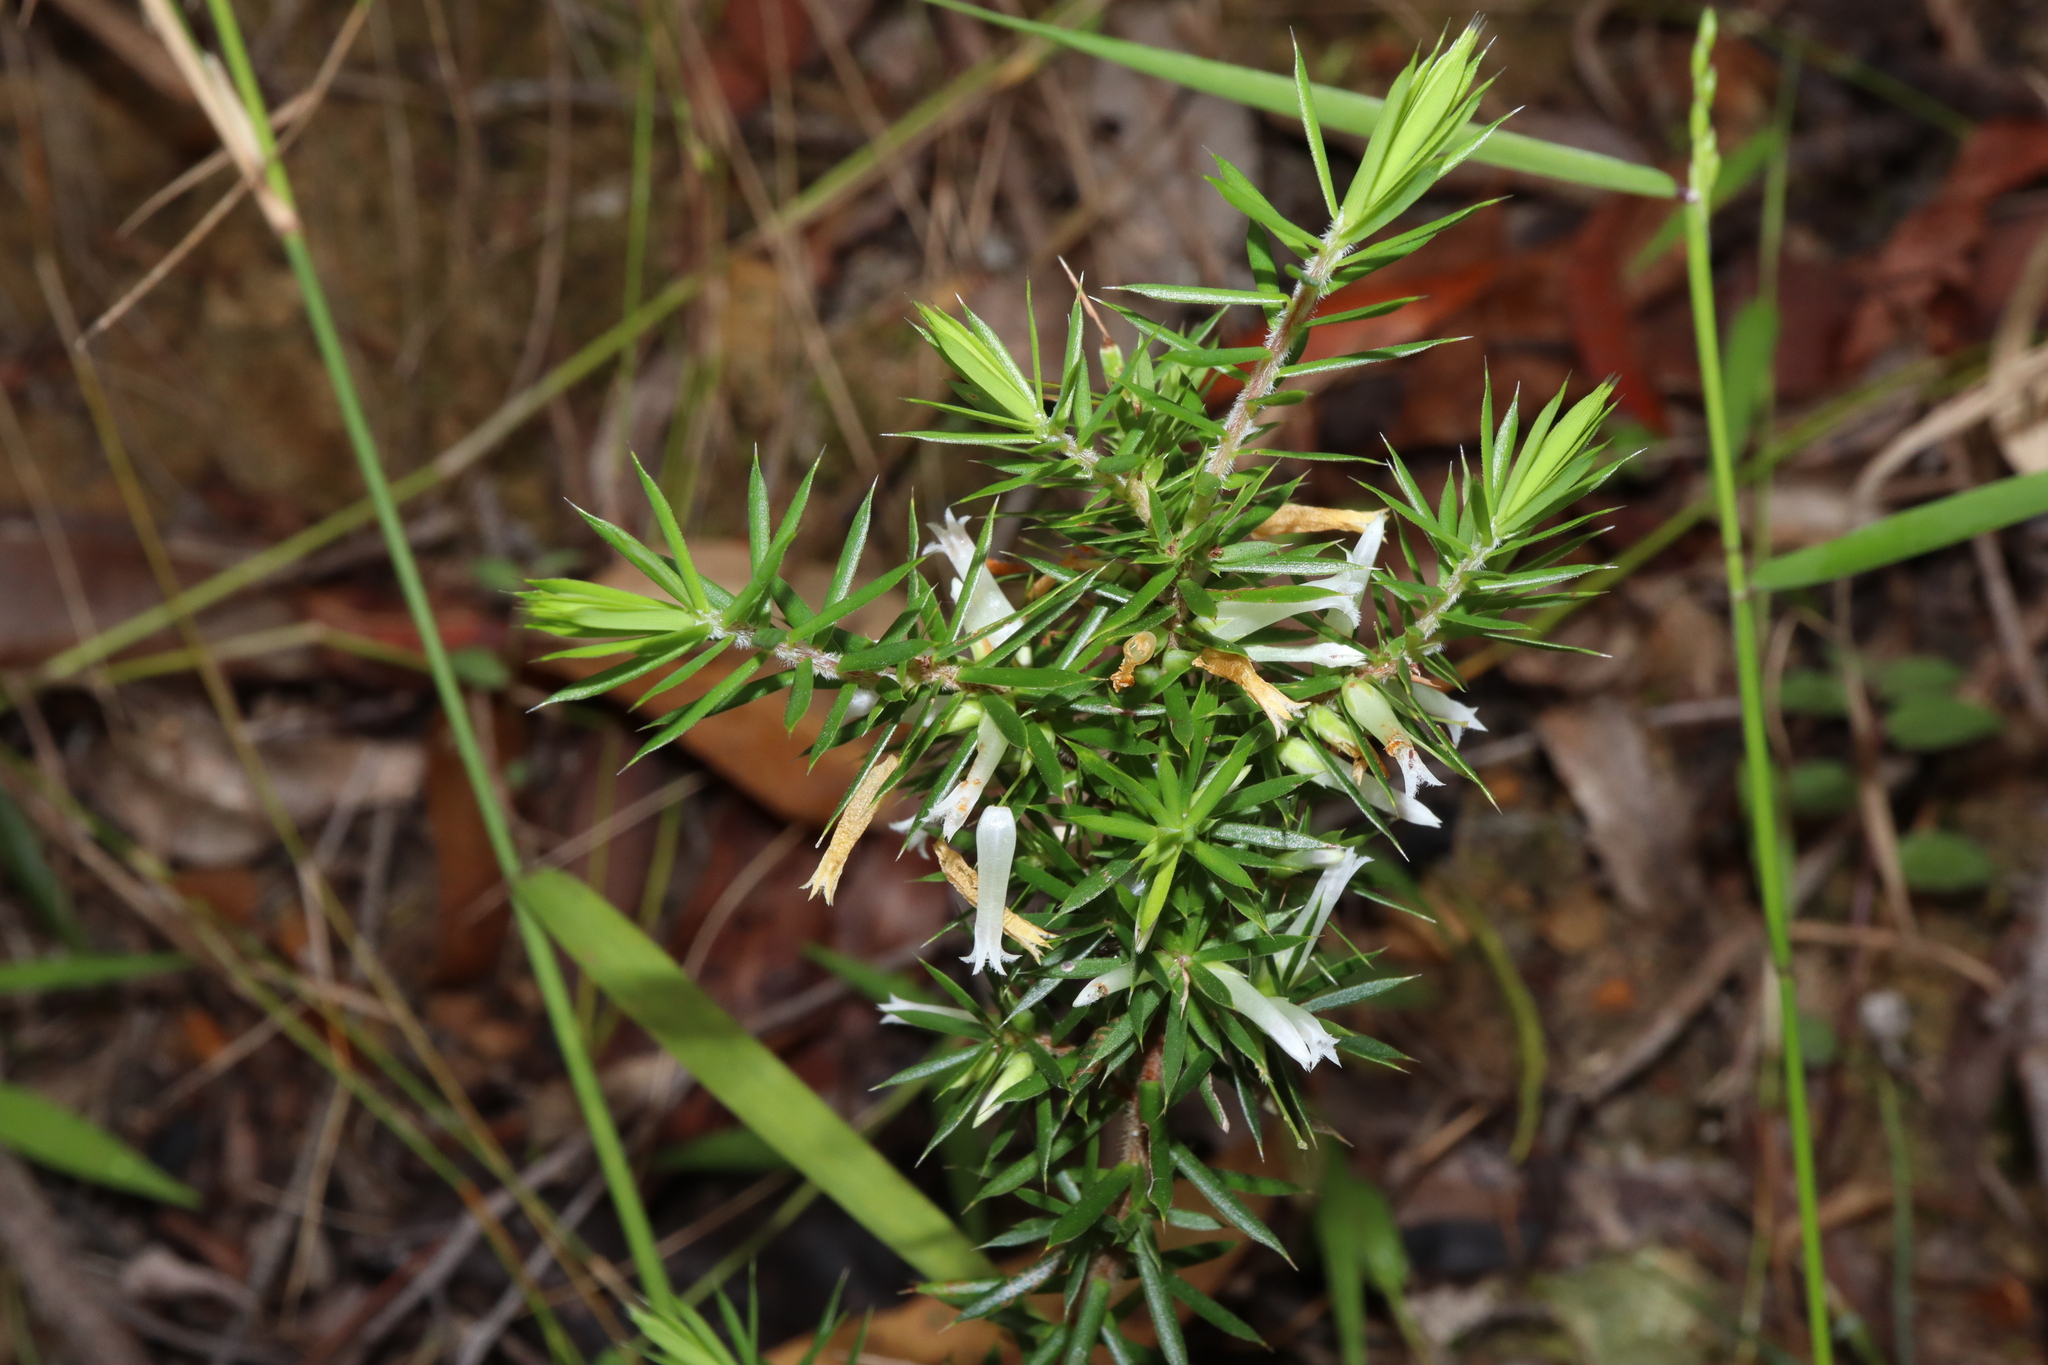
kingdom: Plantae
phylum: Tracheophyta
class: Magnoliopsida
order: Ericales
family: Ericaceae
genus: Styphelia
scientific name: Styphelia sieberi
